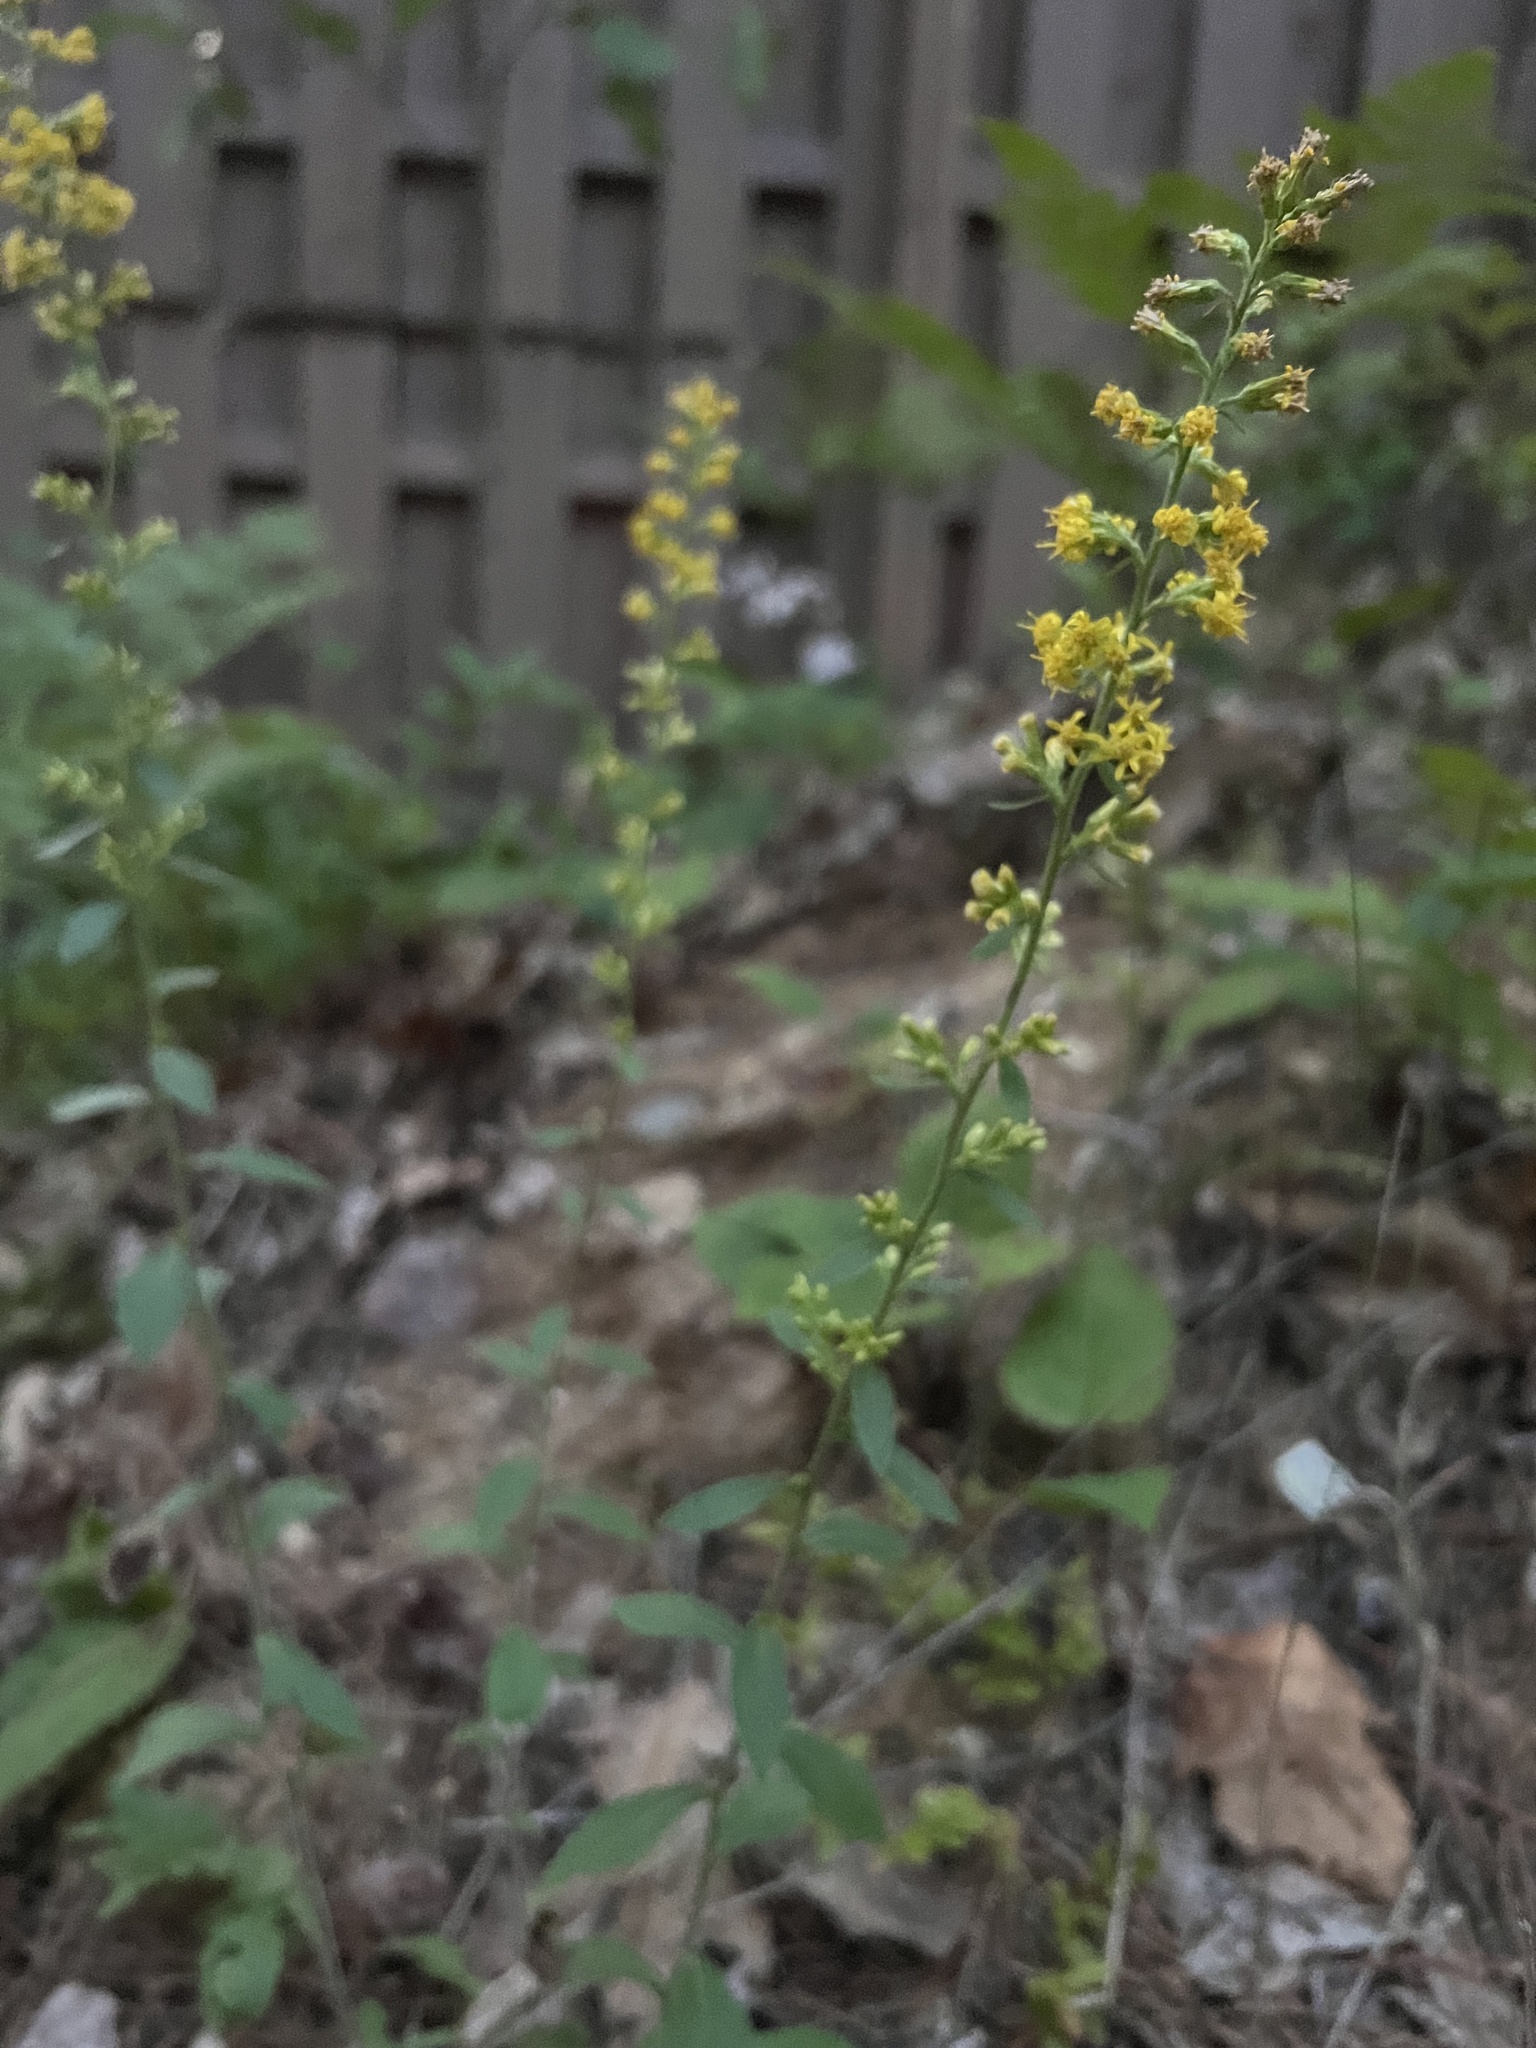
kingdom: Plantae
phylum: Tracheophyta
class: Magnoliopsida
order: Asterales
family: Asteraceae
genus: Solidago
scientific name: Solidago hispida
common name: Hairy goldenrod
